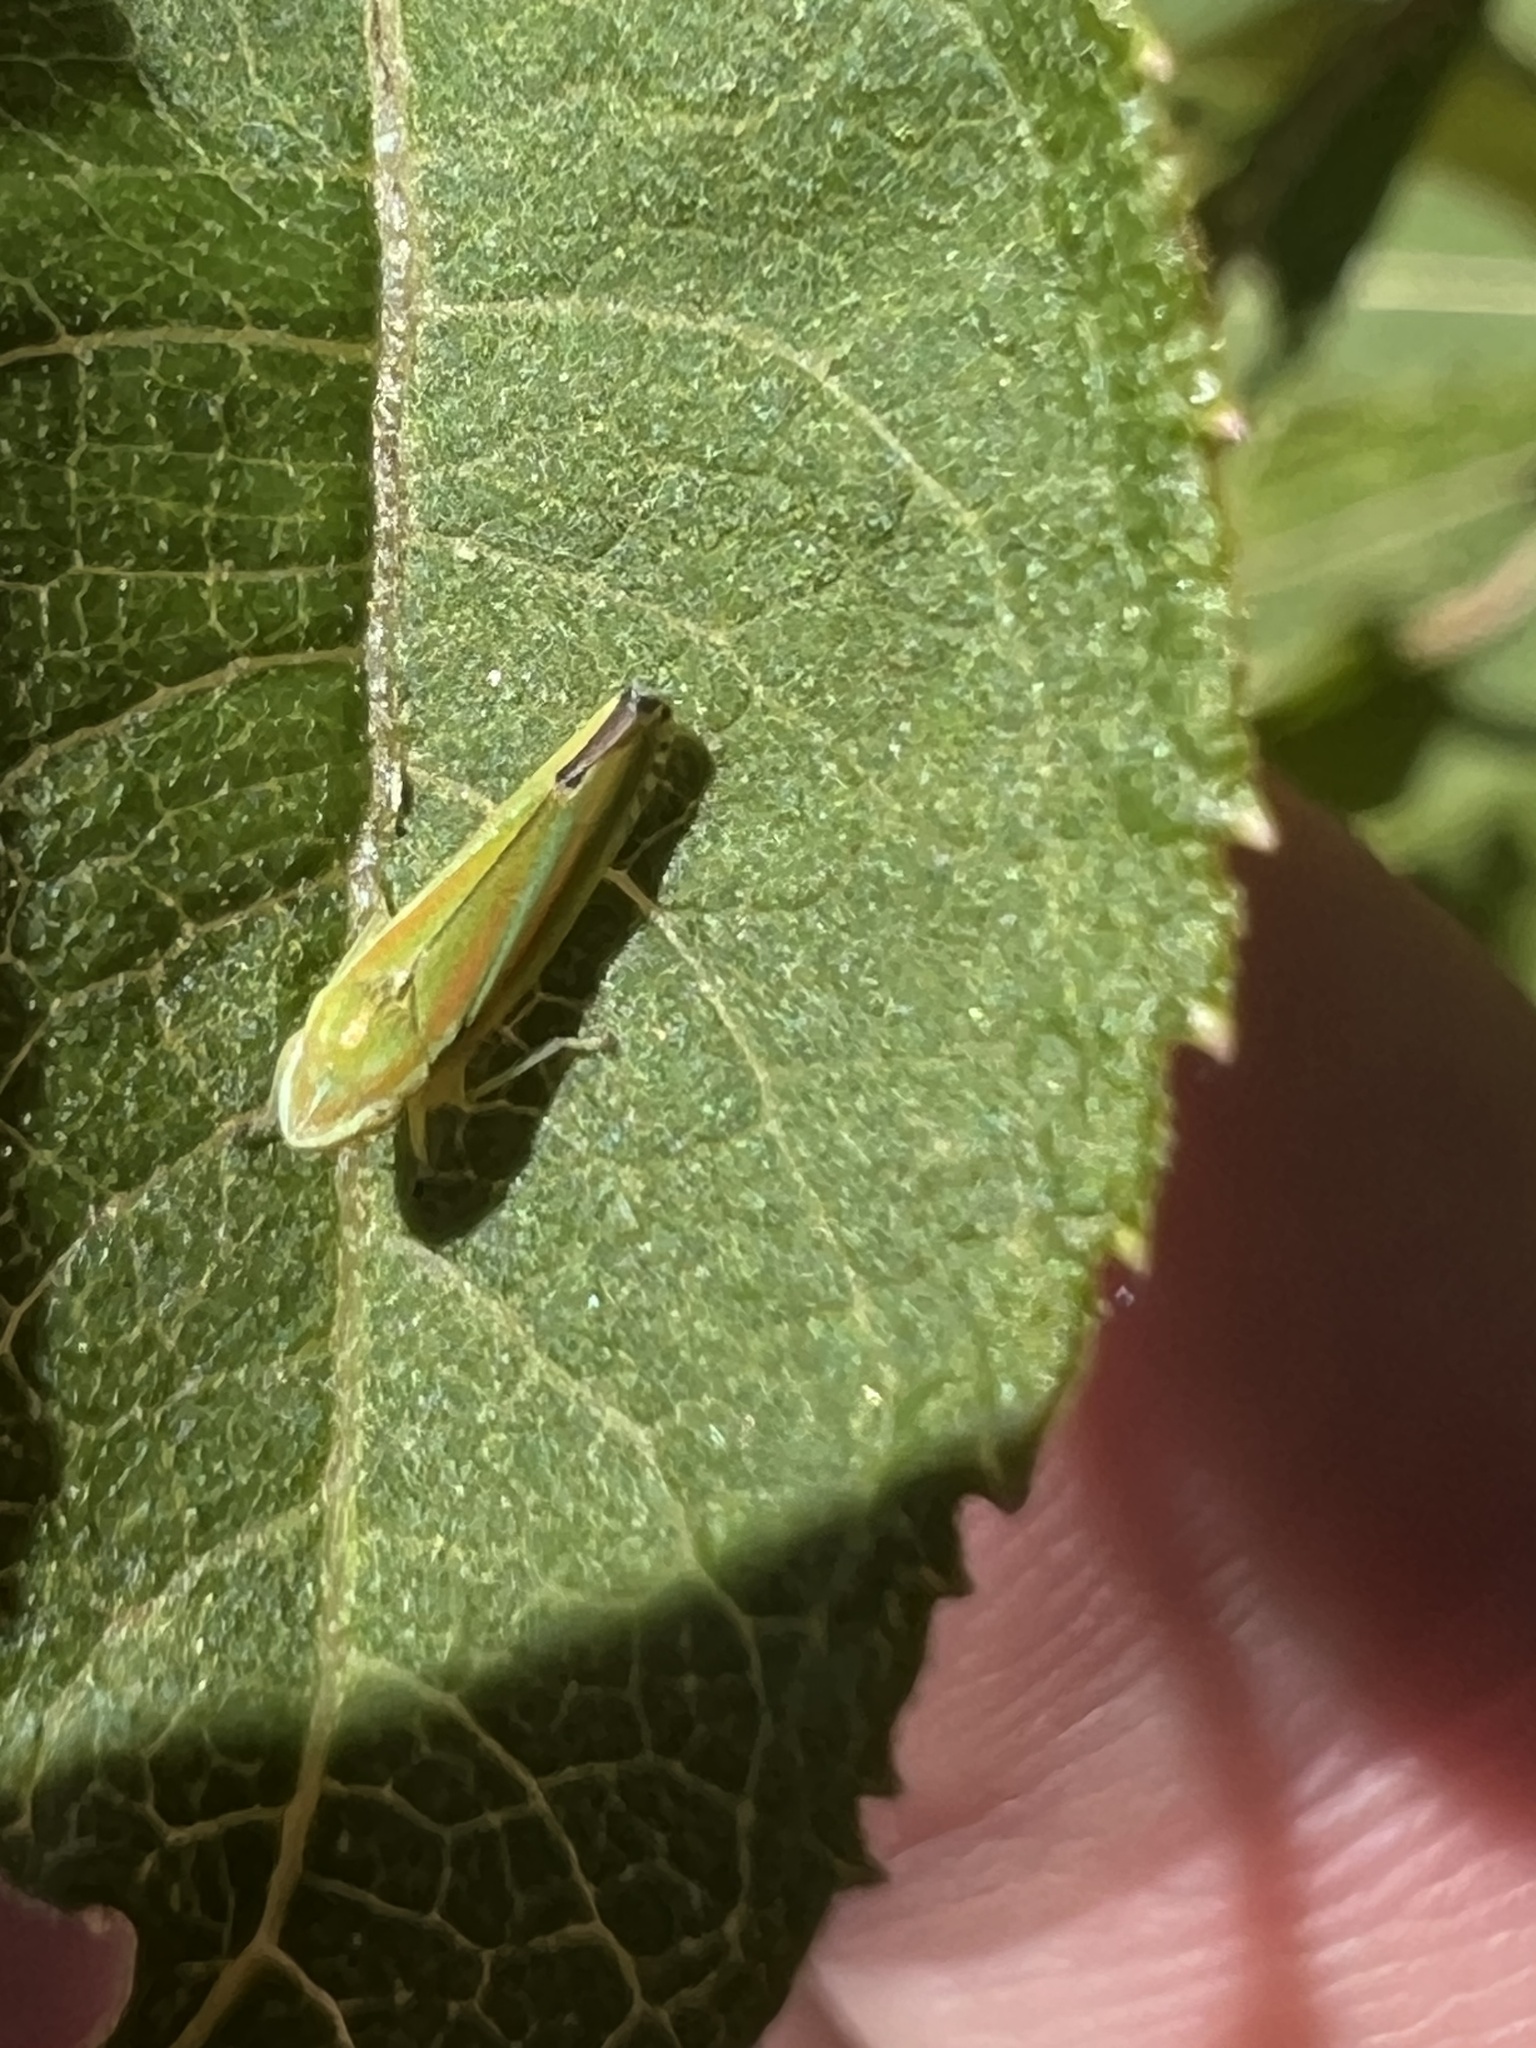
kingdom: Animalia
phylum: Arthropoda
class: Insecta
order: Hemiptera
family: Cicadellidae
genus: Graphocephala
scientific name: Graphocephala versuta
